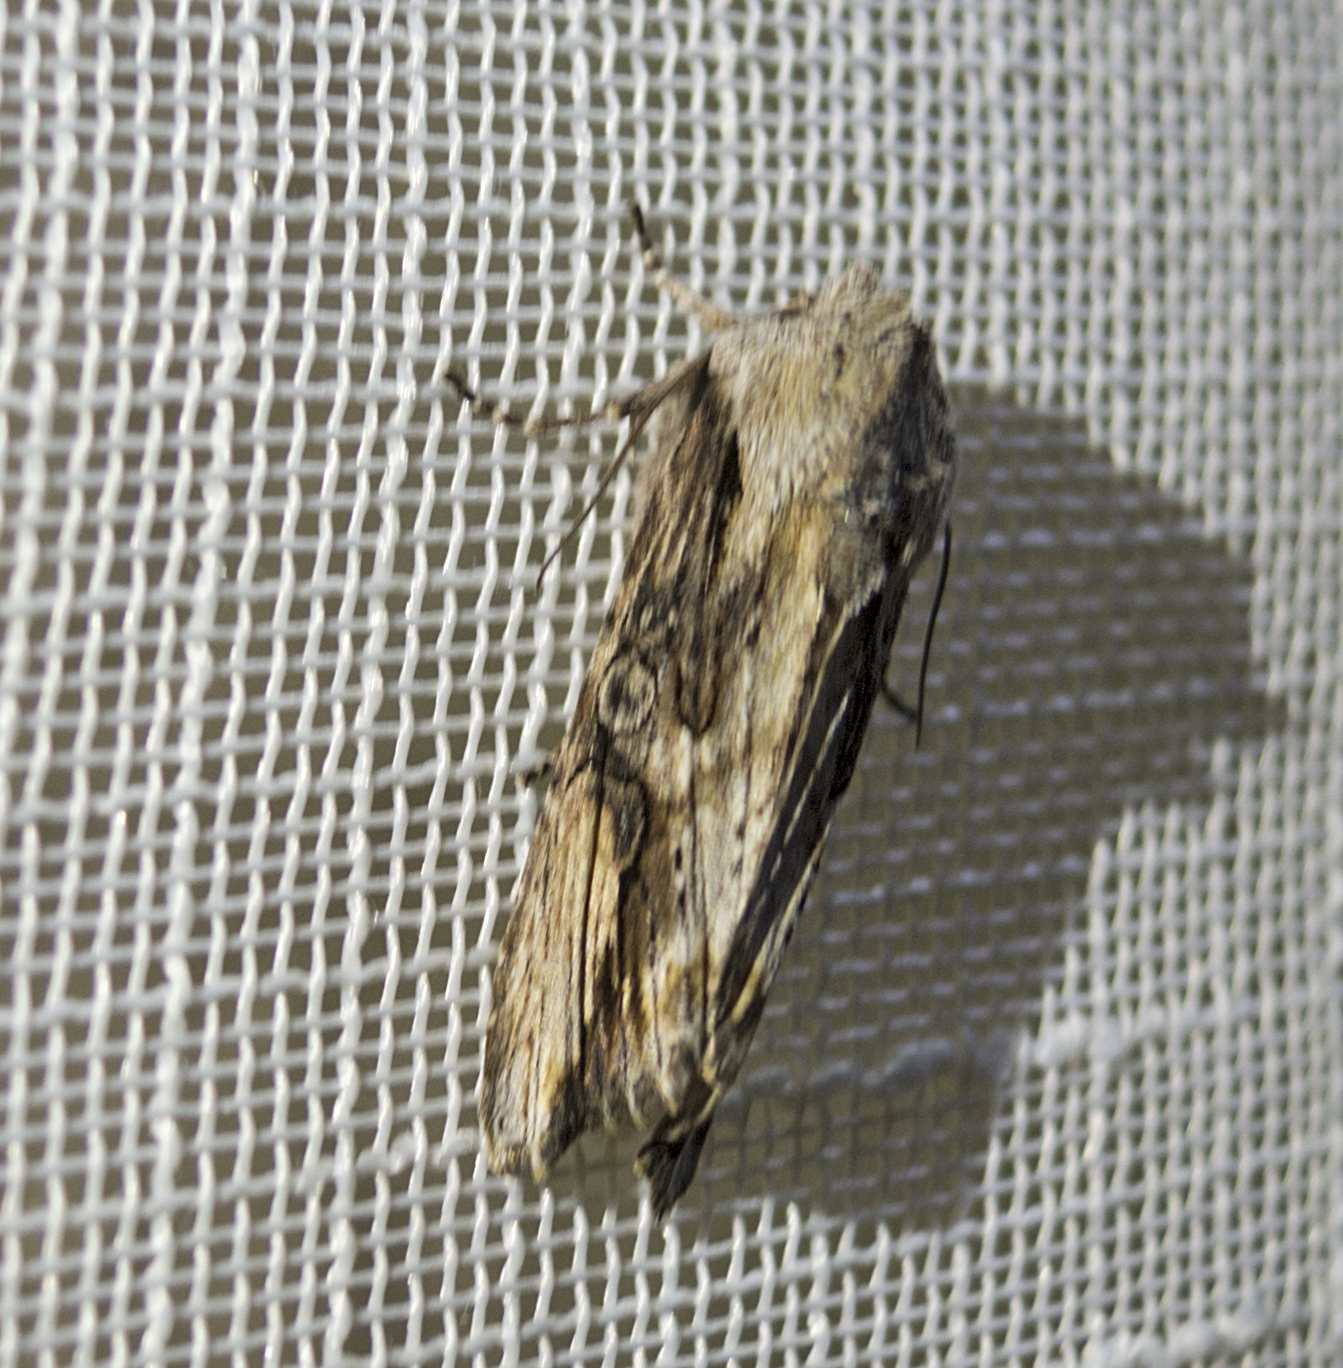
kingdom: Animalia
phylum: Arthropoda
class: Insecta
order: Lepidoptera
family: Noctuidae
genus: Egira
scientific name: Egira conspicillaris
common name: Silver cloud
